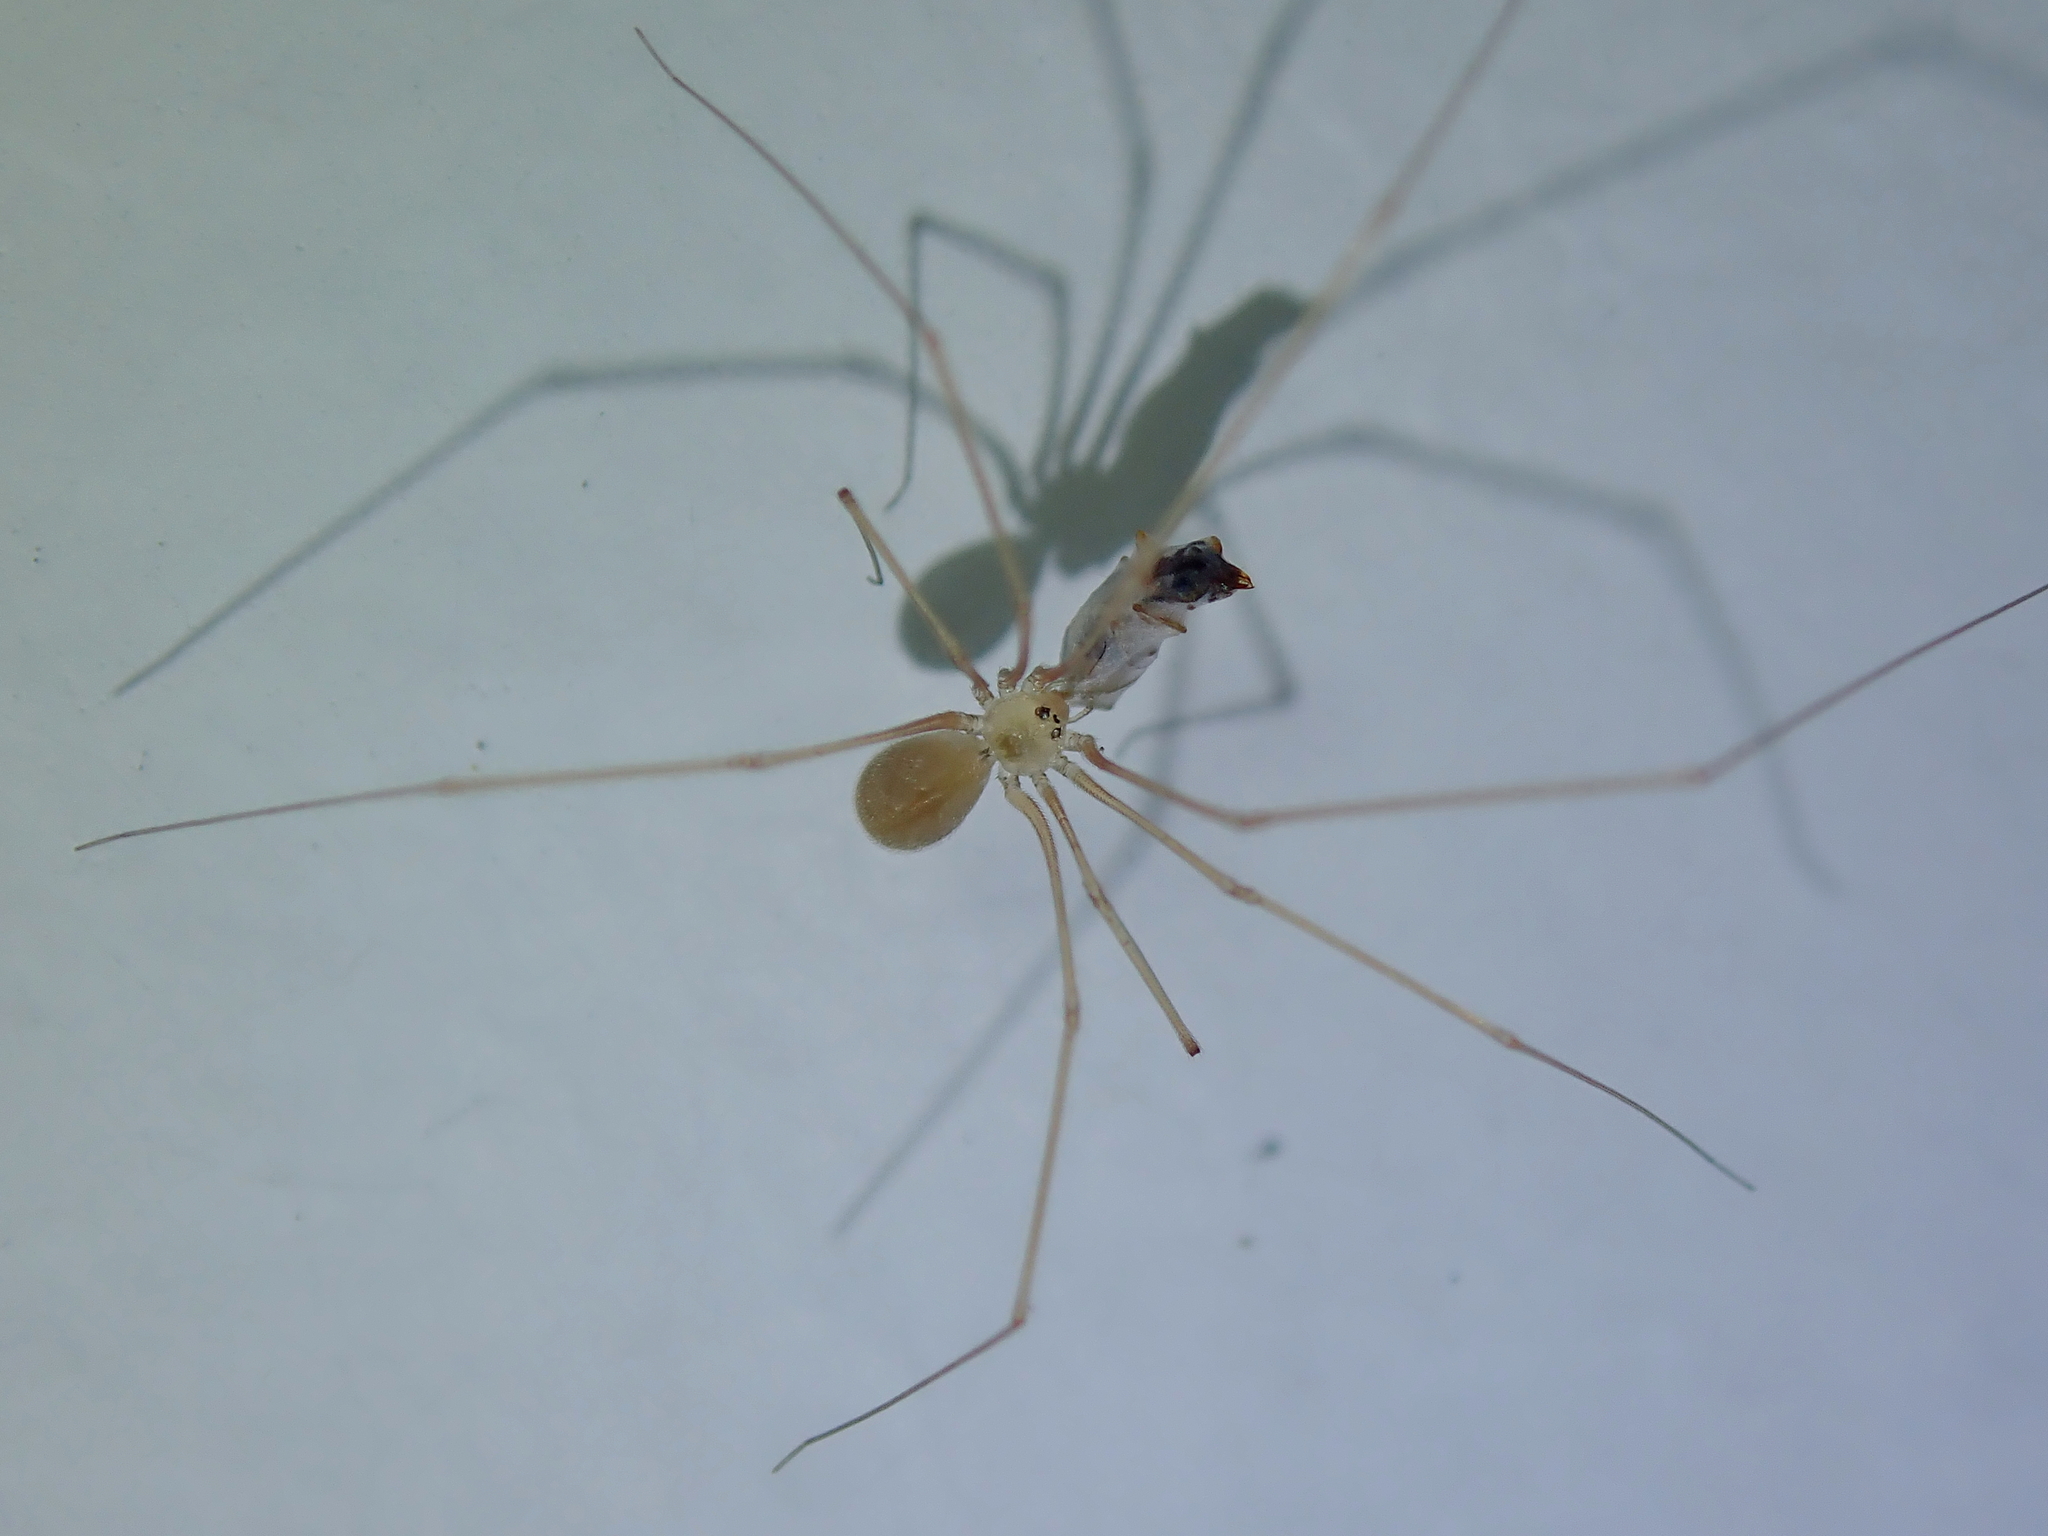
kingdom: Animalia
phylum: Arthropoda
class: Arachnida
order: Araneae
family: Pholcidae
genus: Micropholcus
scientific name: Micropholcus fauroti
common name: Cellar spider
